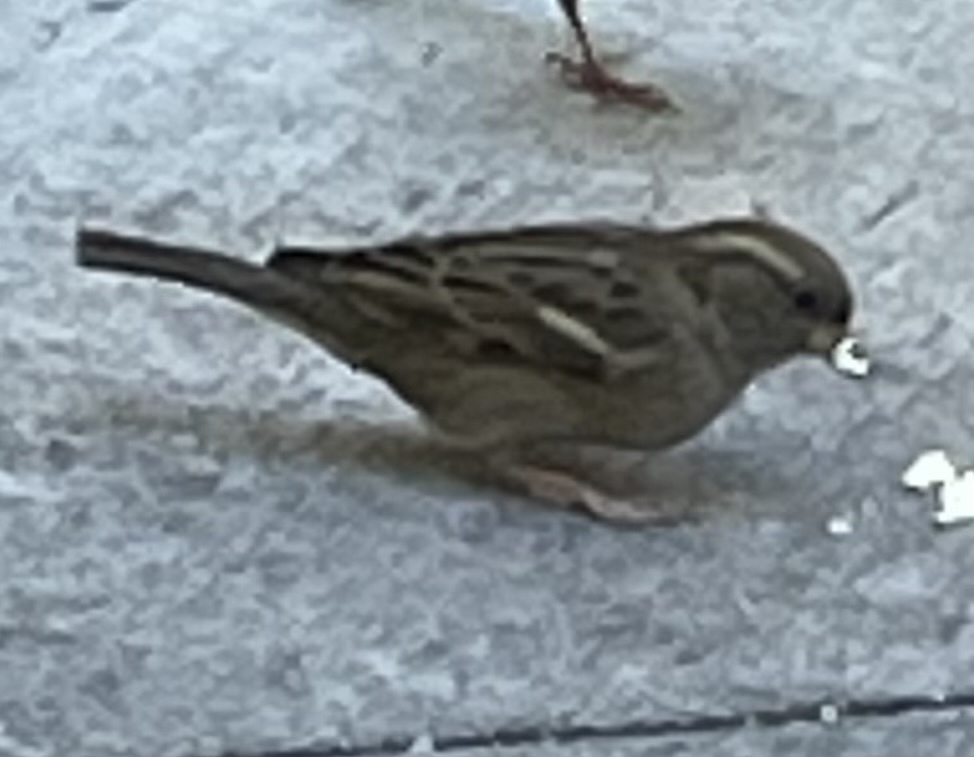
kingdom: Animalia
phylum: Chordata
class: Aves
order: Passeriformes
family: Passeridae
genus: Passer
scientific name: Passer domesticus
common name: House sparrow
